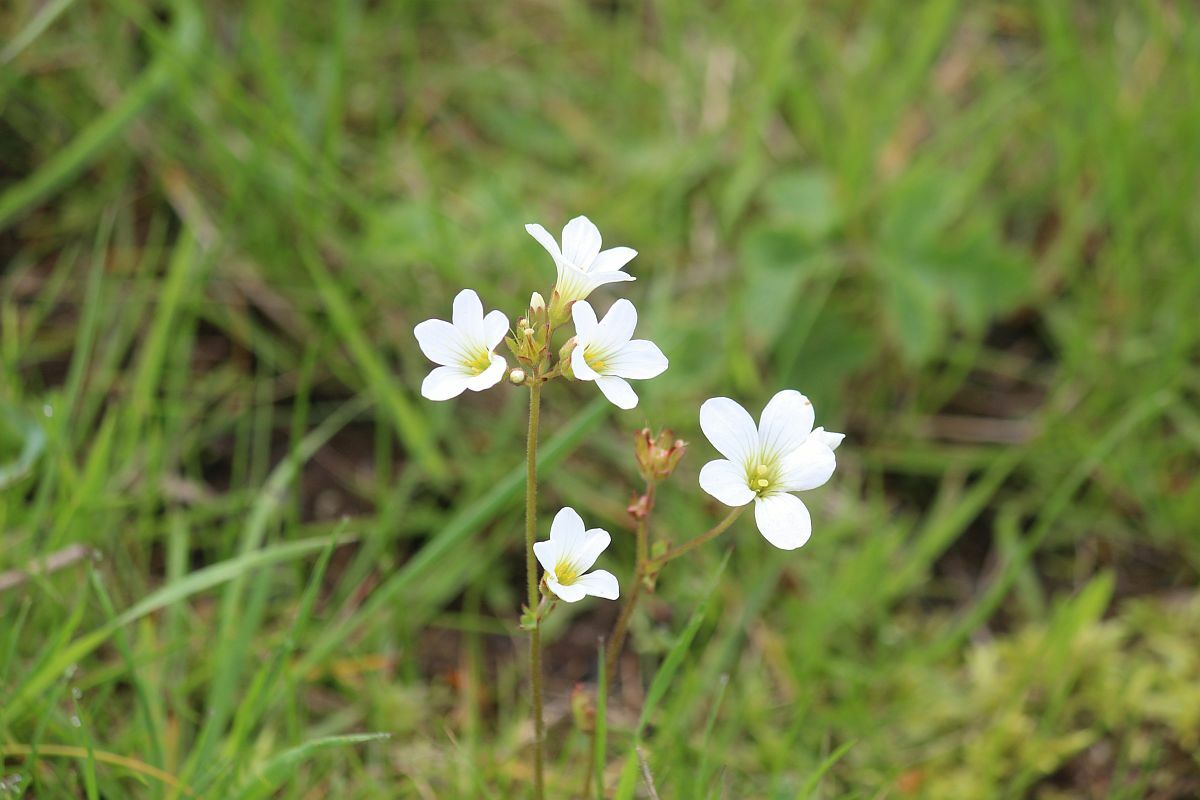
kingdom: Plantae
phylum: Tracheophyta
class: Magnoliopsida
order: Saxifragales
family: Saxifragaceae
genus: Saxifraga
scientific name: Saxifraga granulata
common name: Meadow saxifrage
